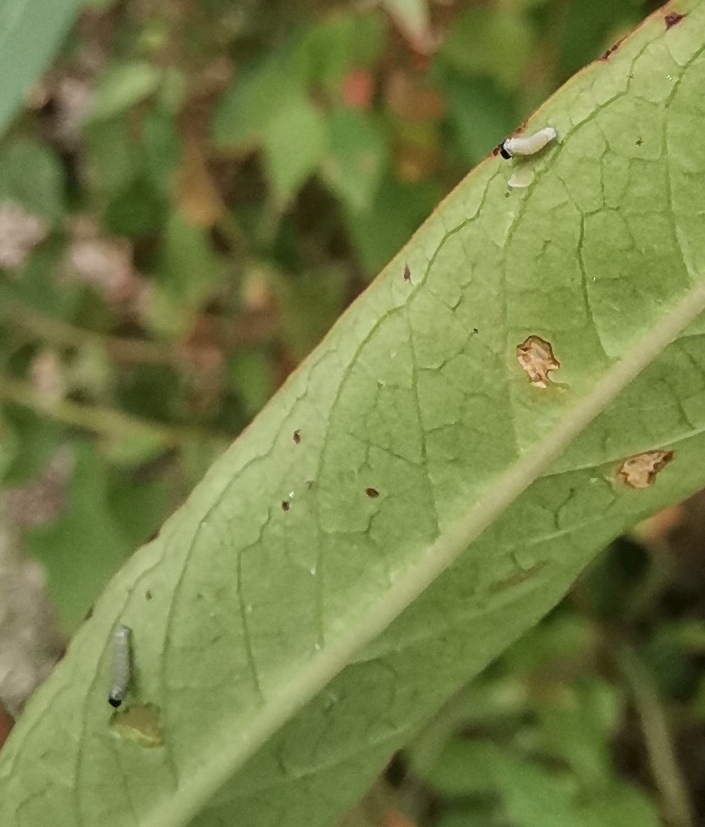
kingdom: Animalia
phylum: Arthropoda
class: Insecta
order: Lepidoptera
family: Nymphalidae
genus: Danaus
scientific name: Danaus plexippus
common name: Monarch
